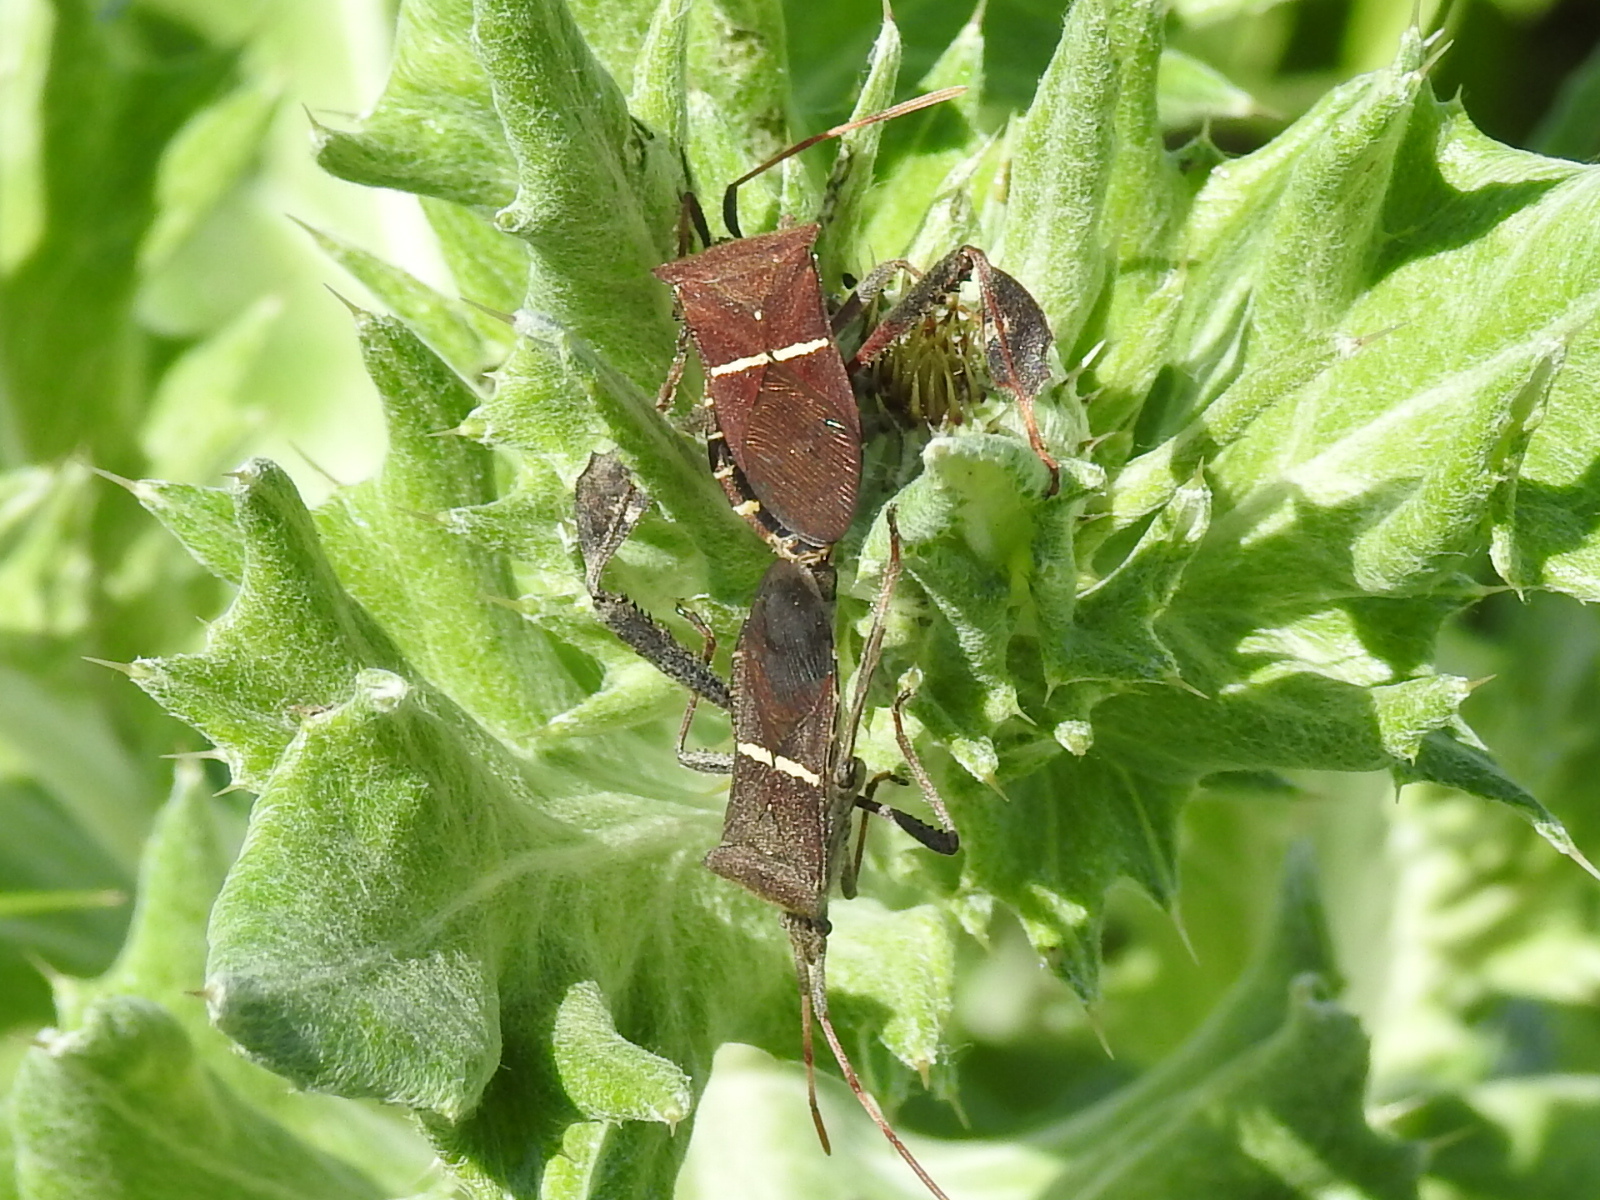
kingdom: Animalia
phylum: Arthropoda
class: Insecta
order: Hemiptera
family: Coreidae
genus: Leptoglossus
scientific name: Leptoglossus phyllopus
